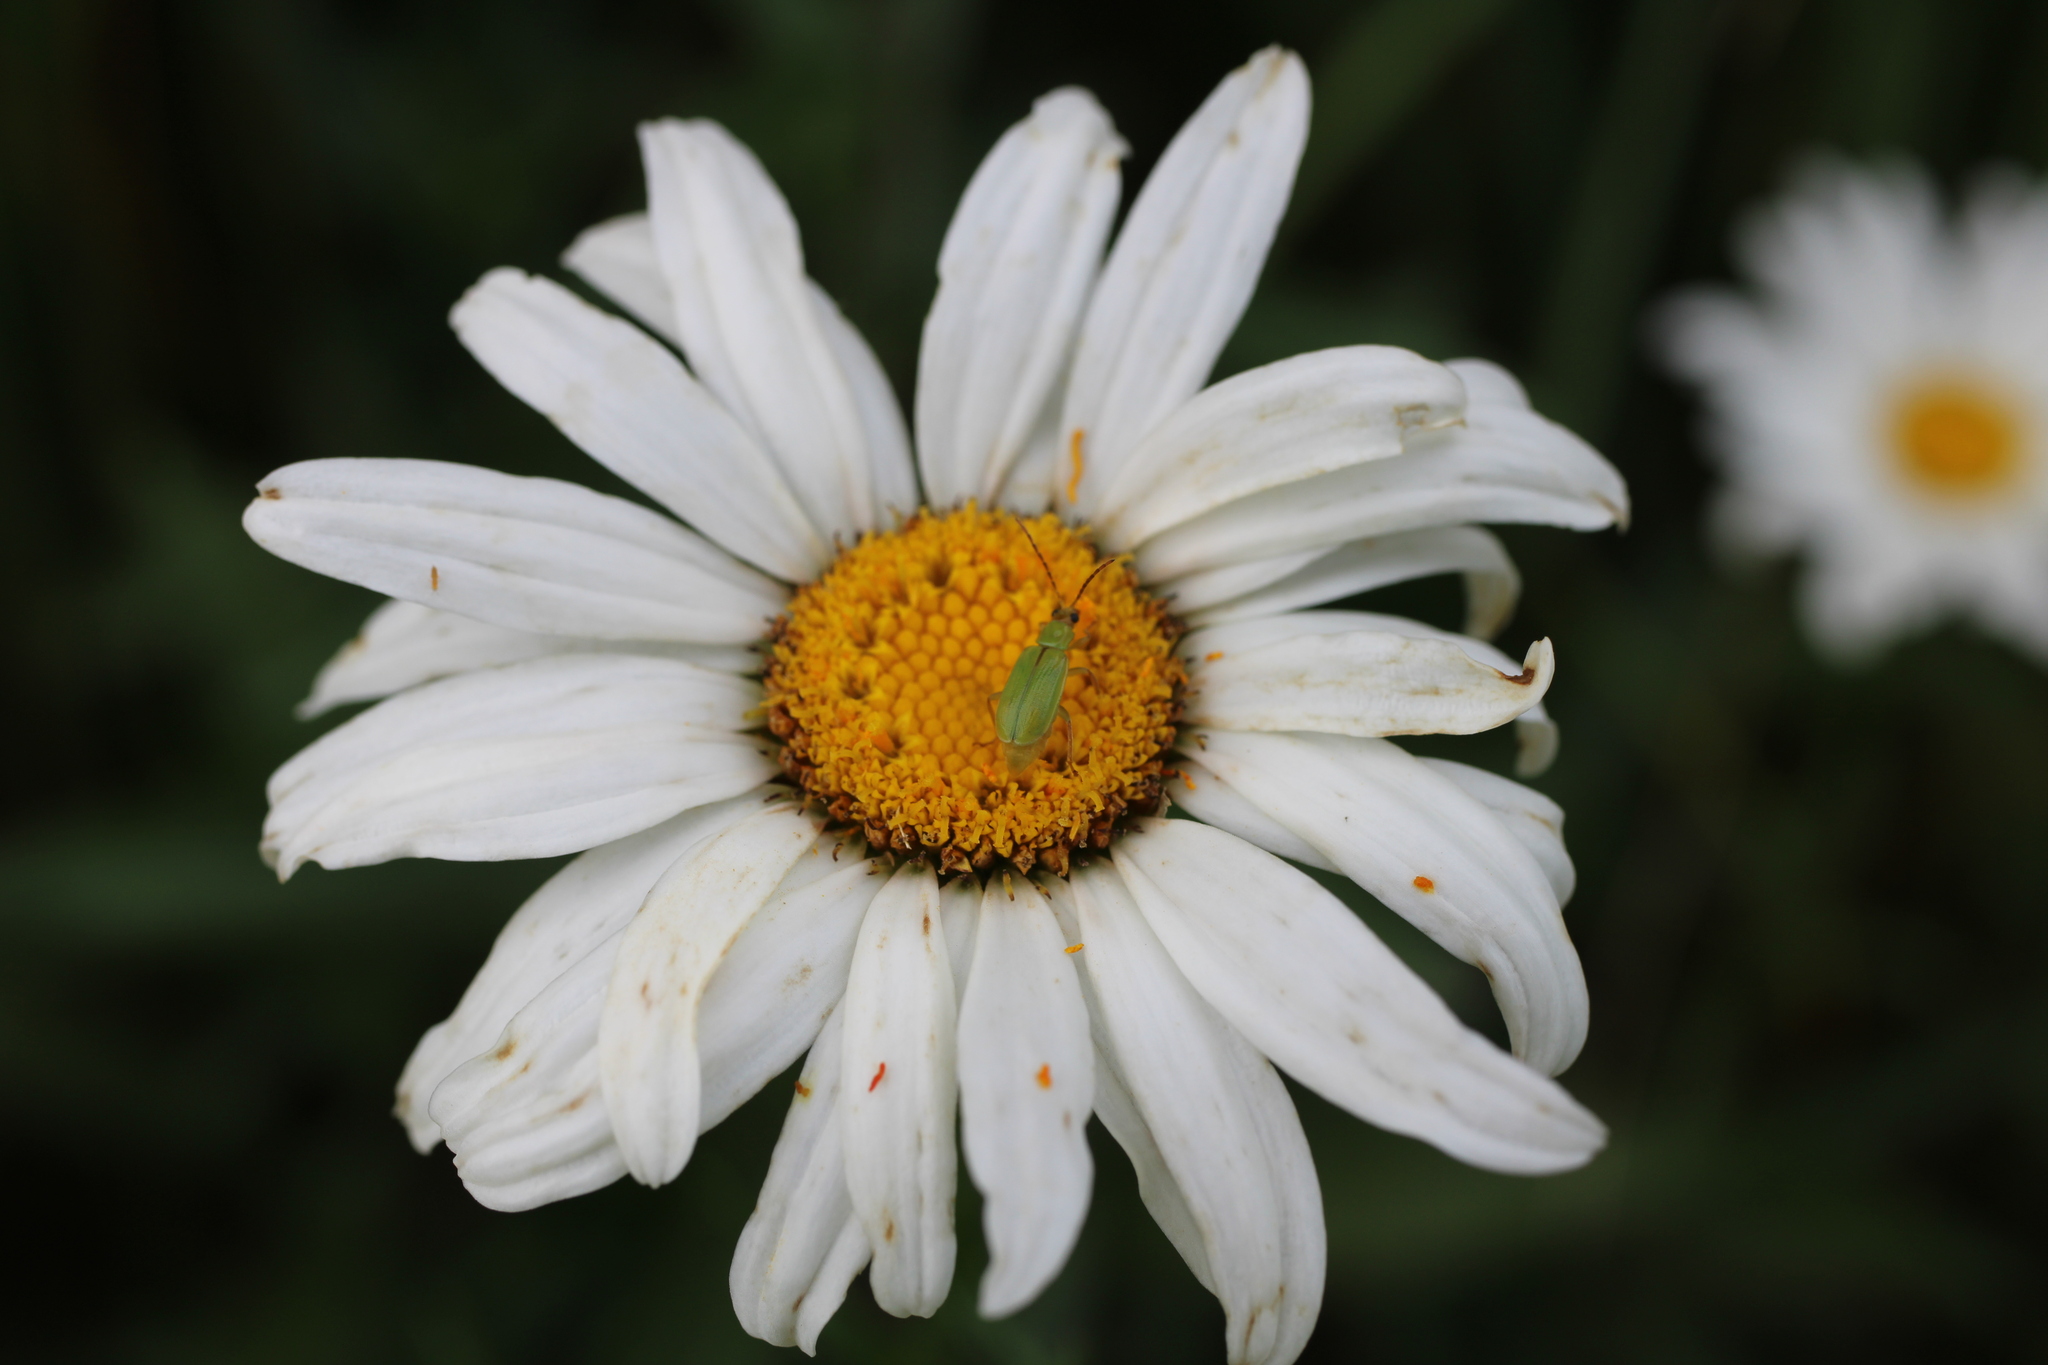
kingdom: Animalia
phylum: Arthropoda
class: Insecta
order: Coleoptera
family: Chrysomelidae
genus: Diabrotica
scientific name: Diabrotica barberi
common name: Northern corn rootworm
